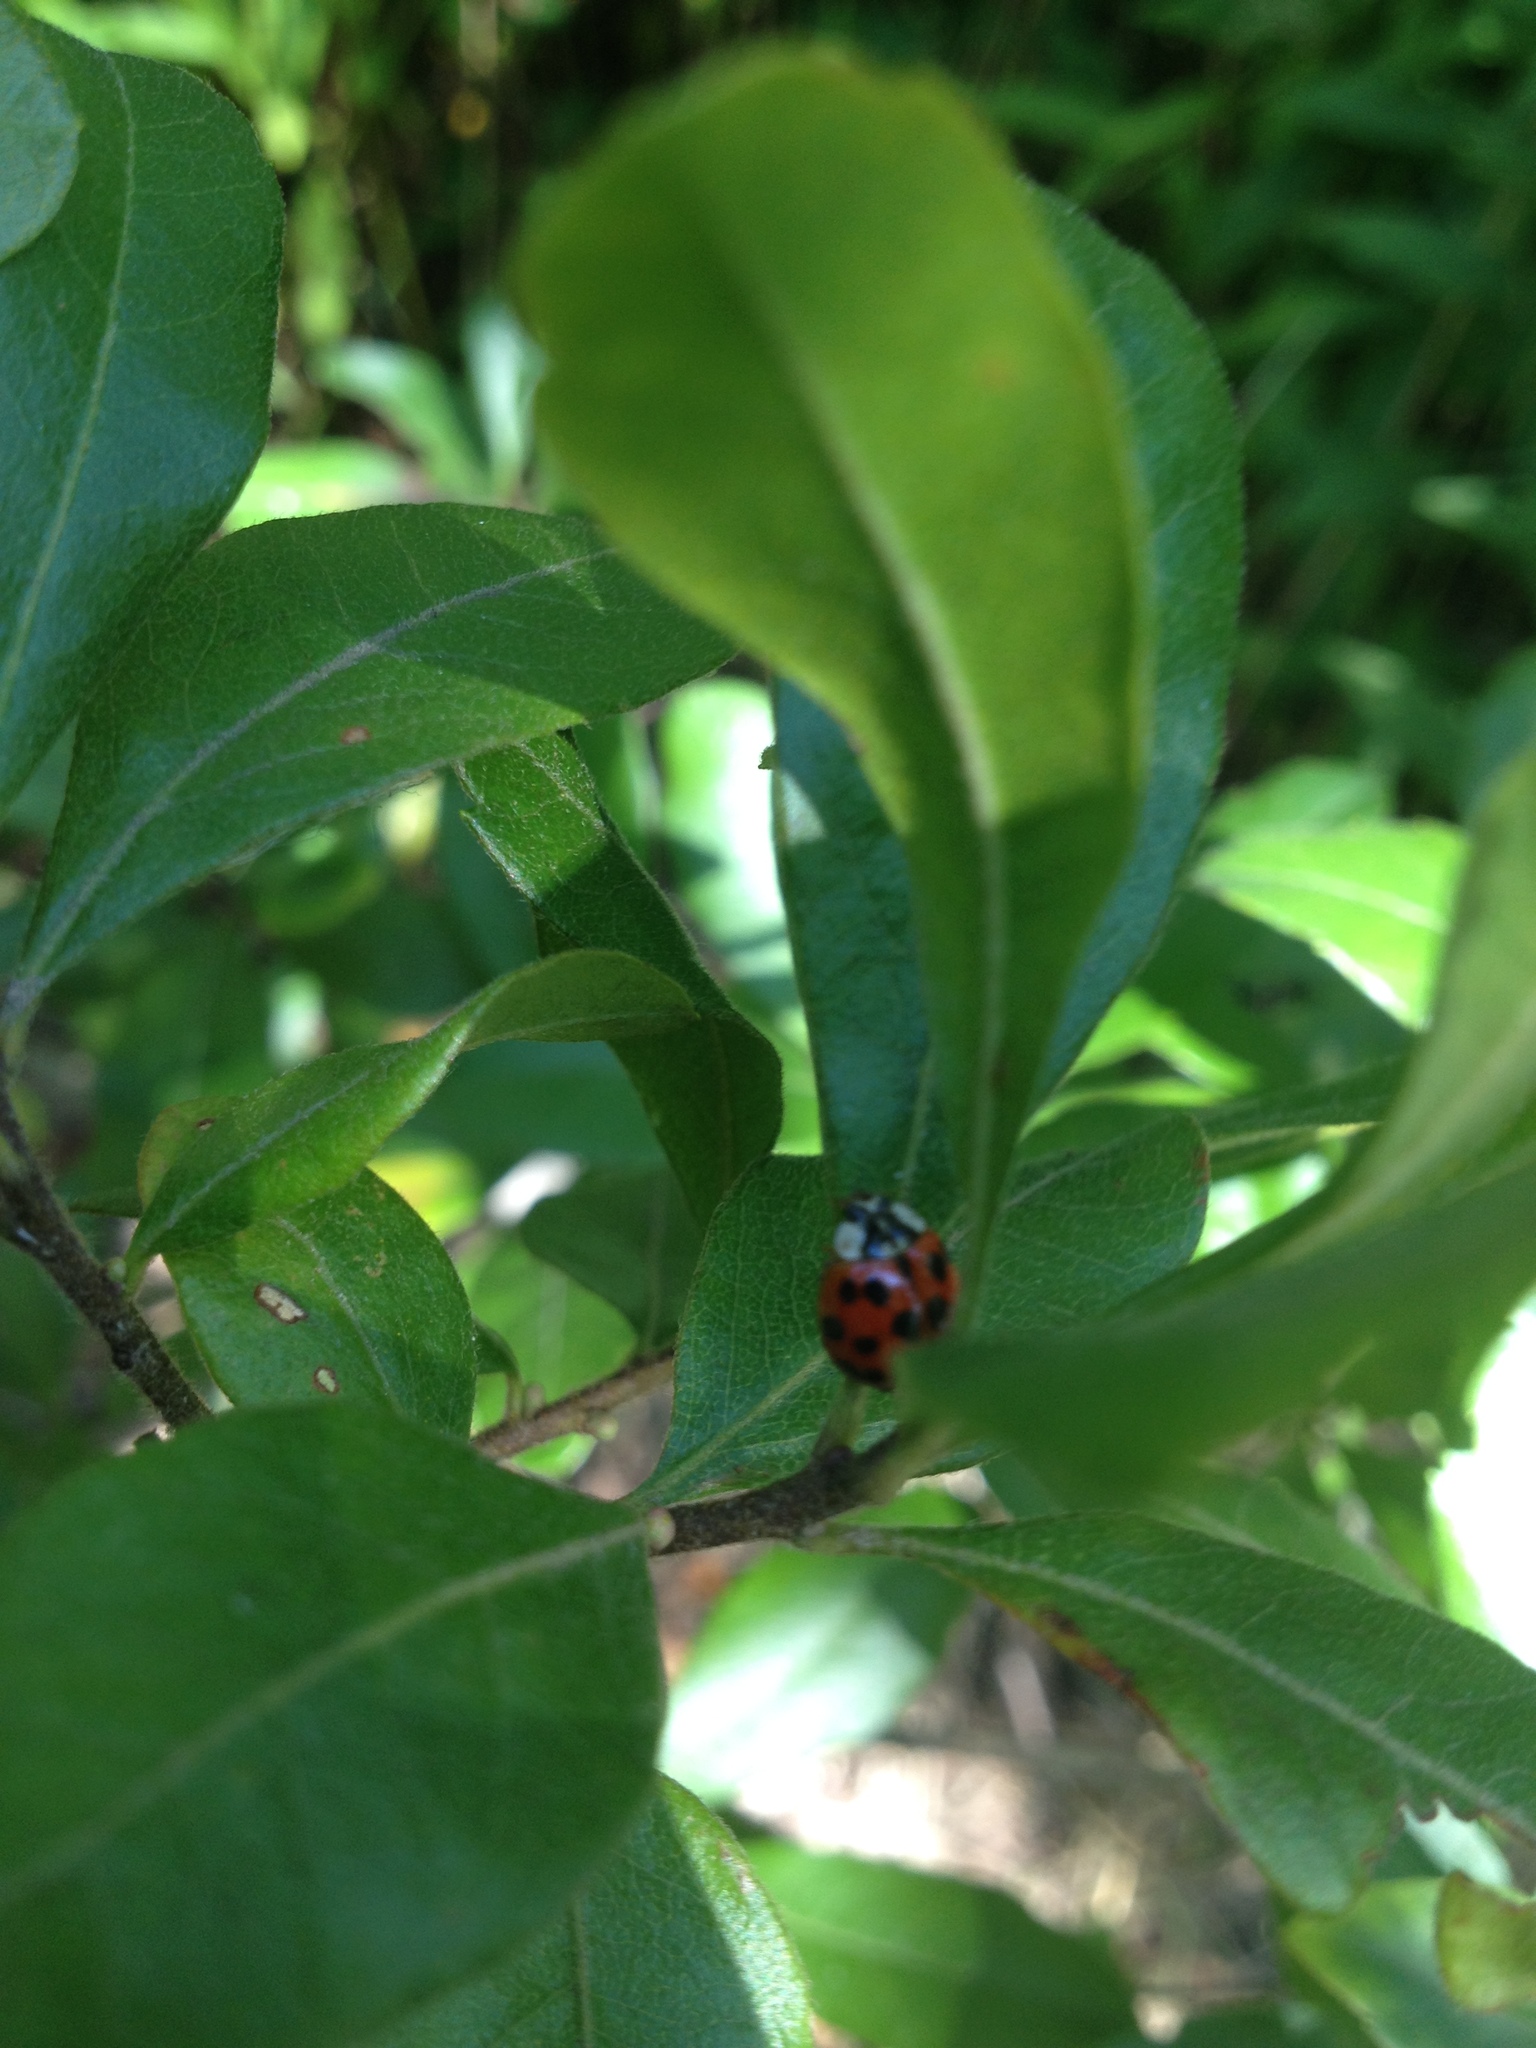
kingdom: Animalia
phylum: Arthropoda
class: Insecta
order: Coleoptera
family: Coccinellidae
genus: Harmonia
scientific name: Harmonia axyridis
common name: Harlequin ladybird
